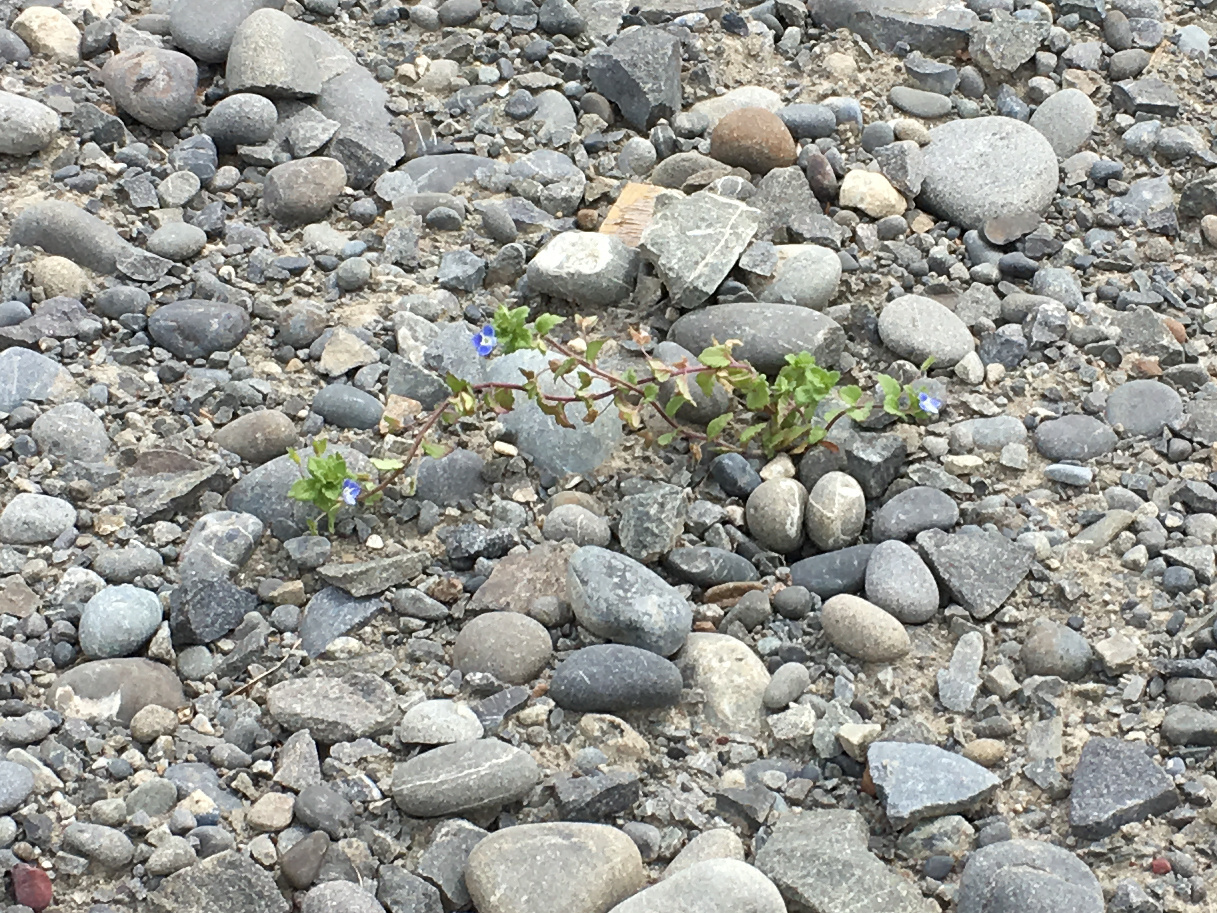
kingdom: Plantae
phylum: Tracheophyta
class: Magnoliopsida
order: Lamiales
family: Plantaginaceae
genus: Veronica
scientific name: Veronica persica
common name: Common field-speedwell
